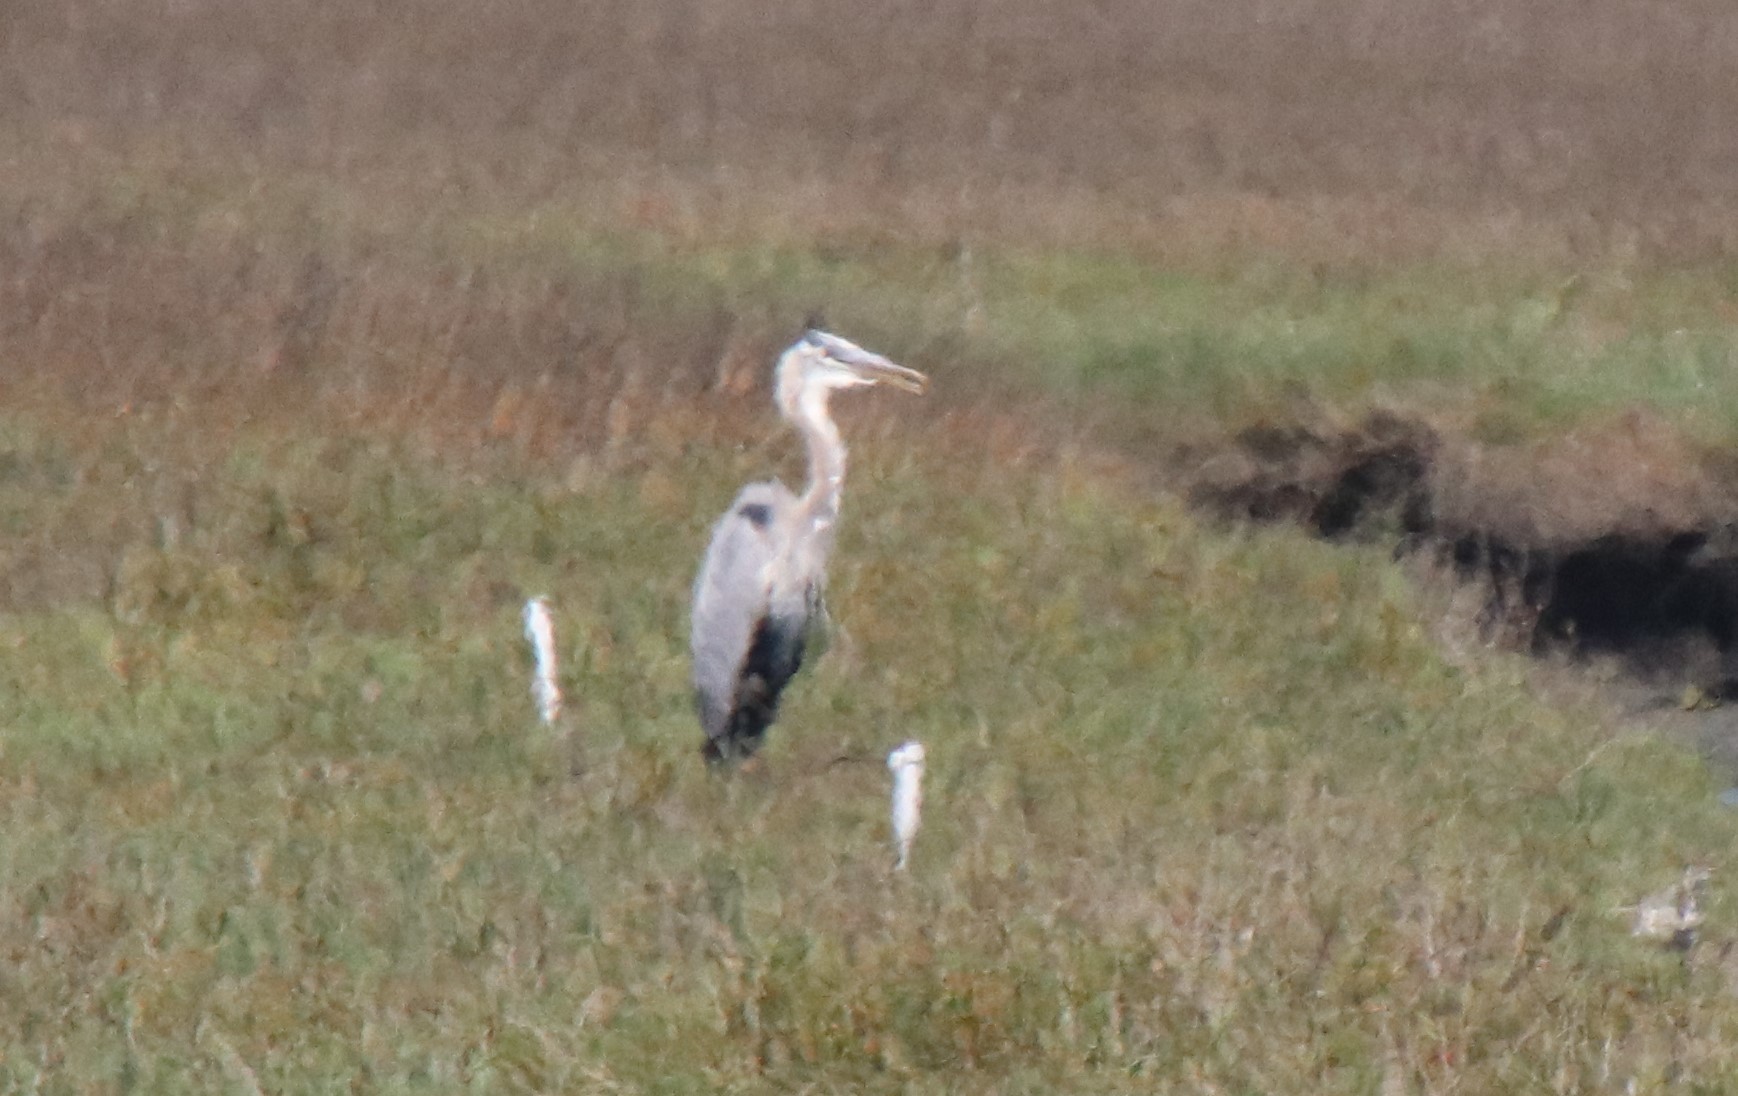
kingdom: Animalia
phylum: Chordata
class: Aves
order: Pelecaniformes
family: Ardeidae
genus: Ardea
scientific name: Ardea herodias
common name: Great blue heron
